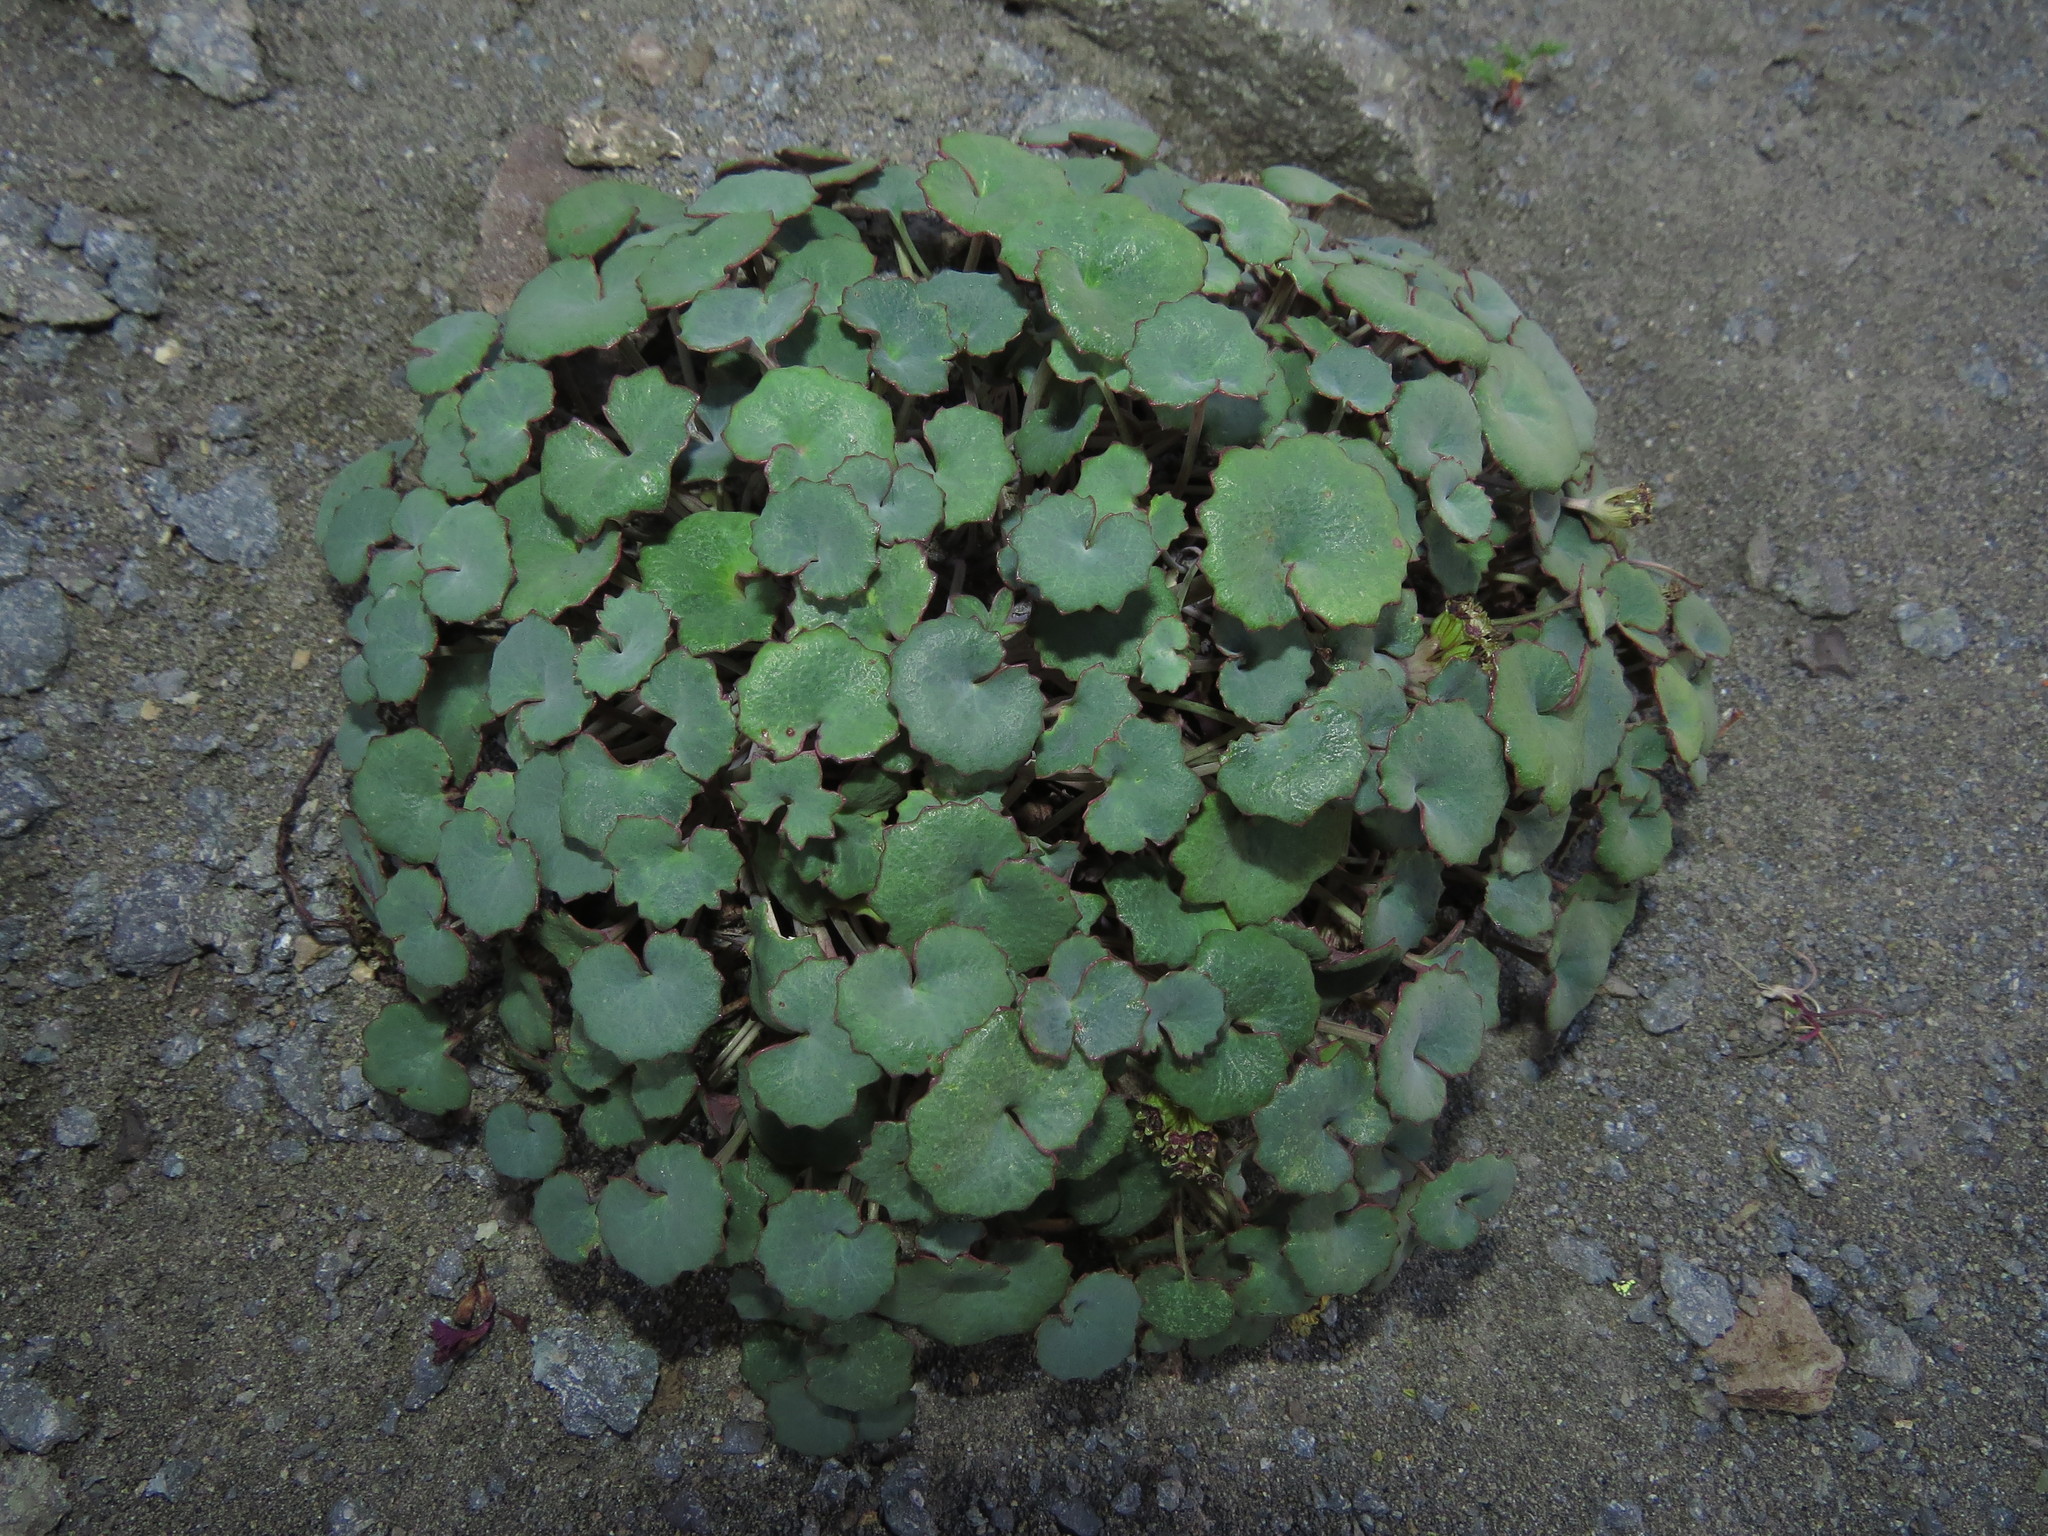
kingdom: Plantae
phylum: Tracheophyta
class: Magnoliopsida
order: Apiales
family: Apiaceae
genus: Pozoa
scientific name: Pozoa coriacea
